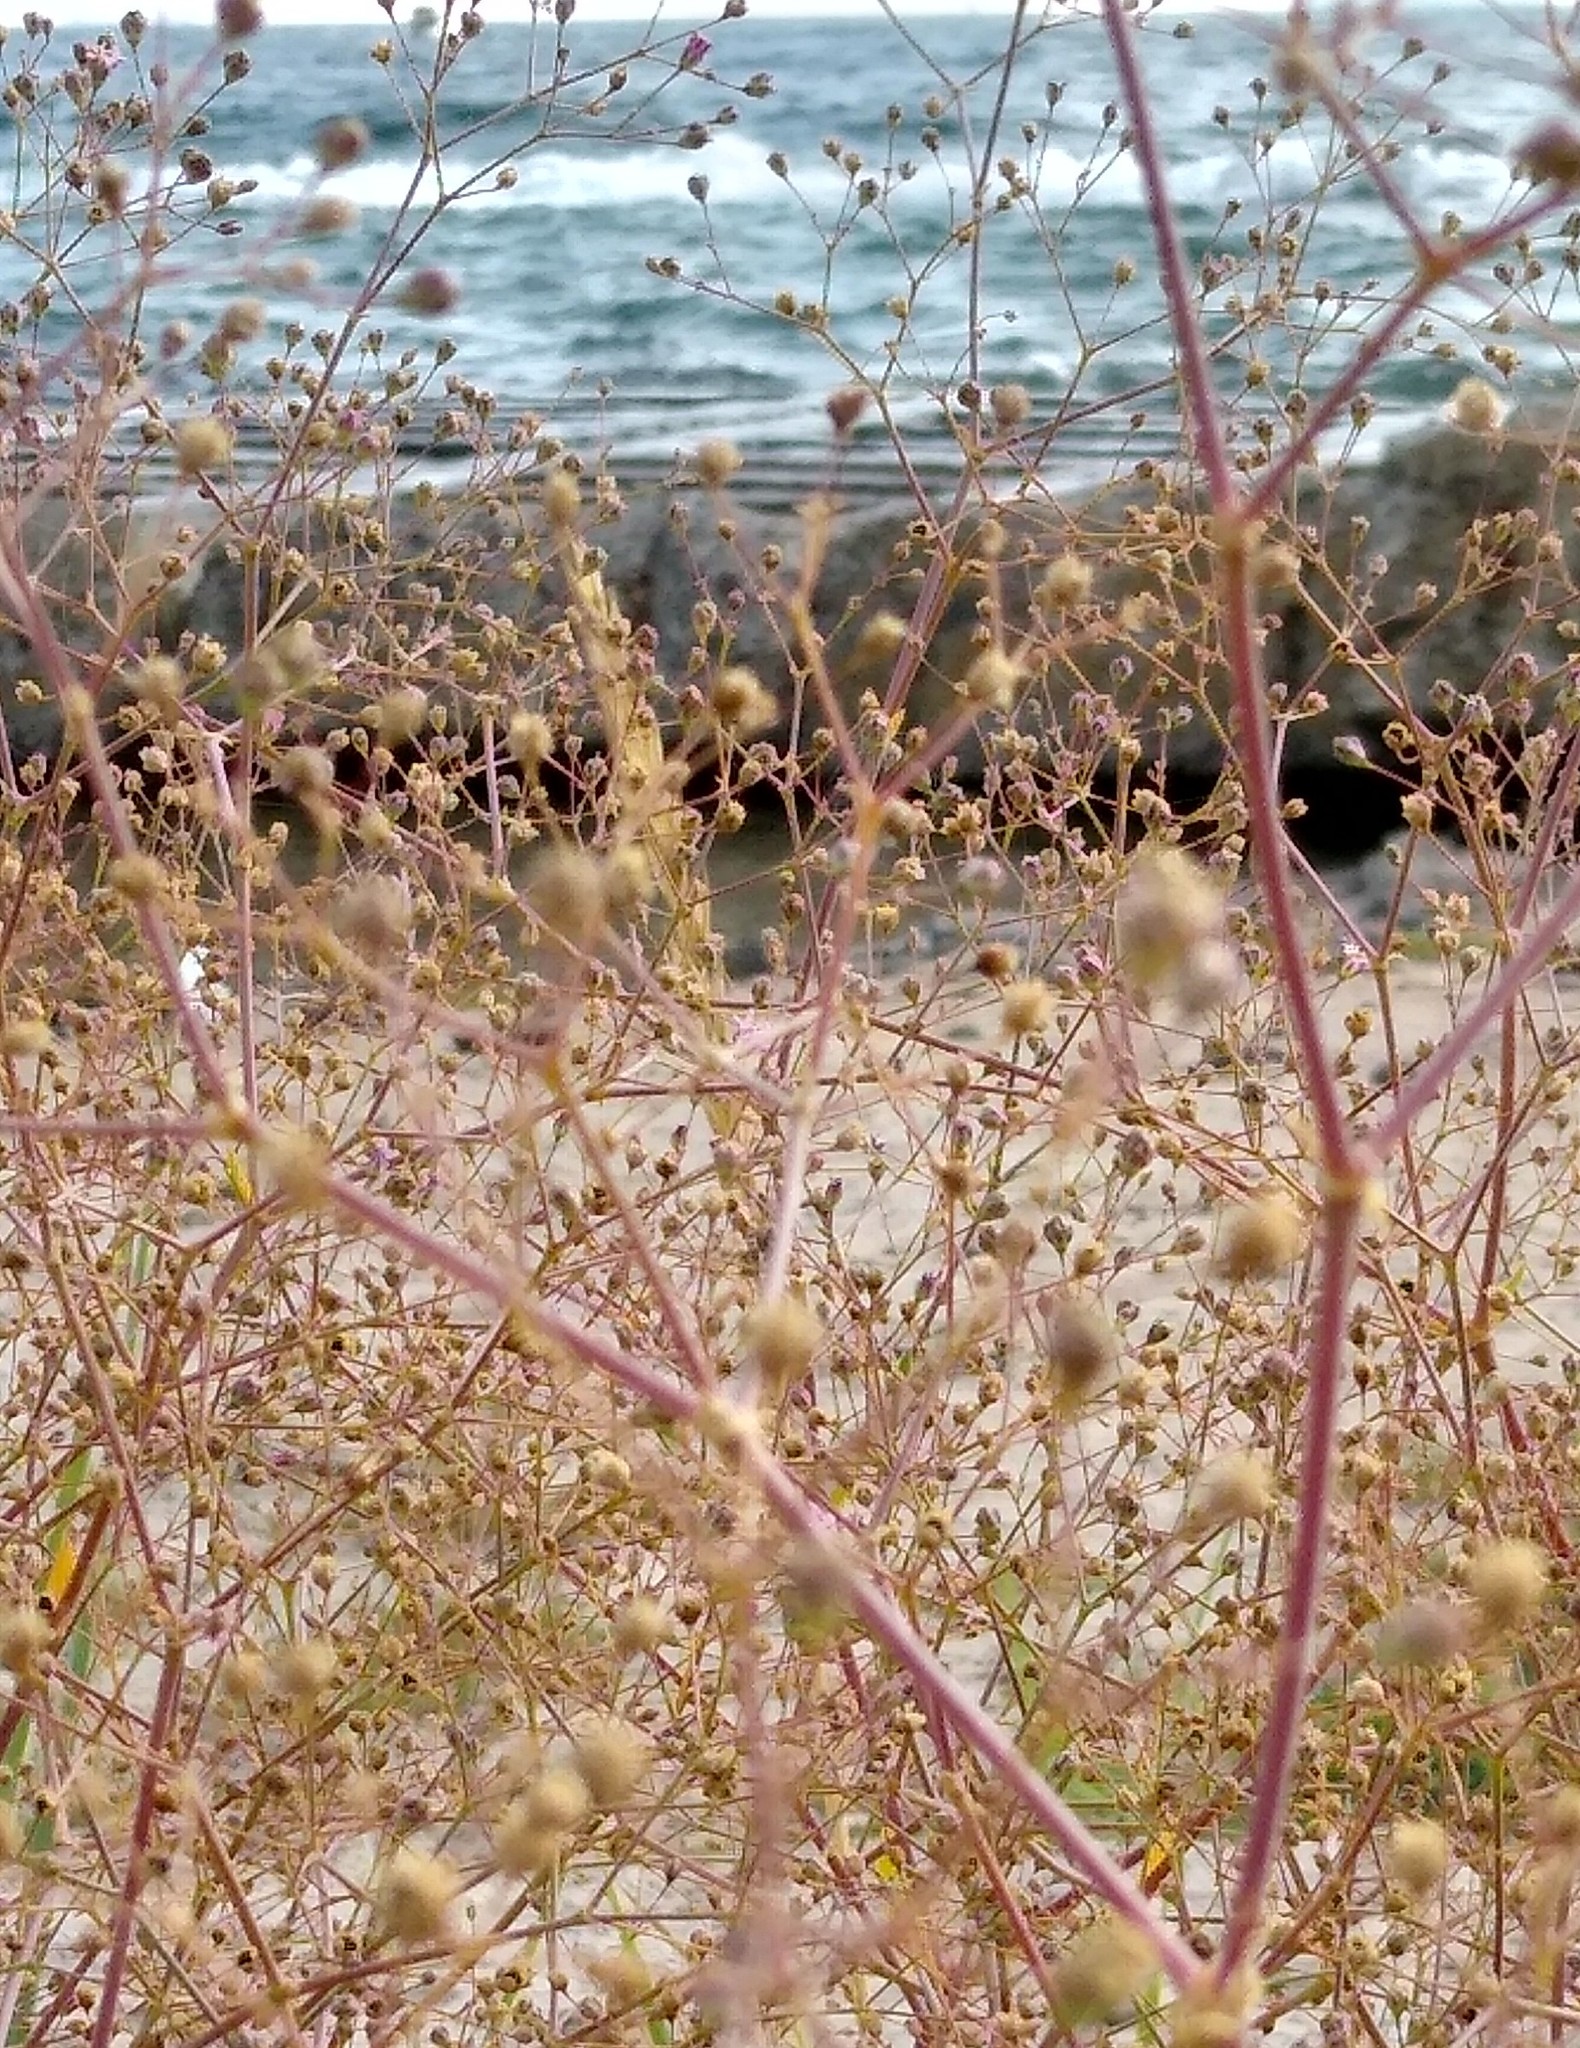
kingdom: Plantae
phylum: Tracheophyta
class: Magnoliopsida
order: Caryophyllales
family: Caryophyllaceae
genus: Gypsophila
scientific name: Gypsophila perfoliata
